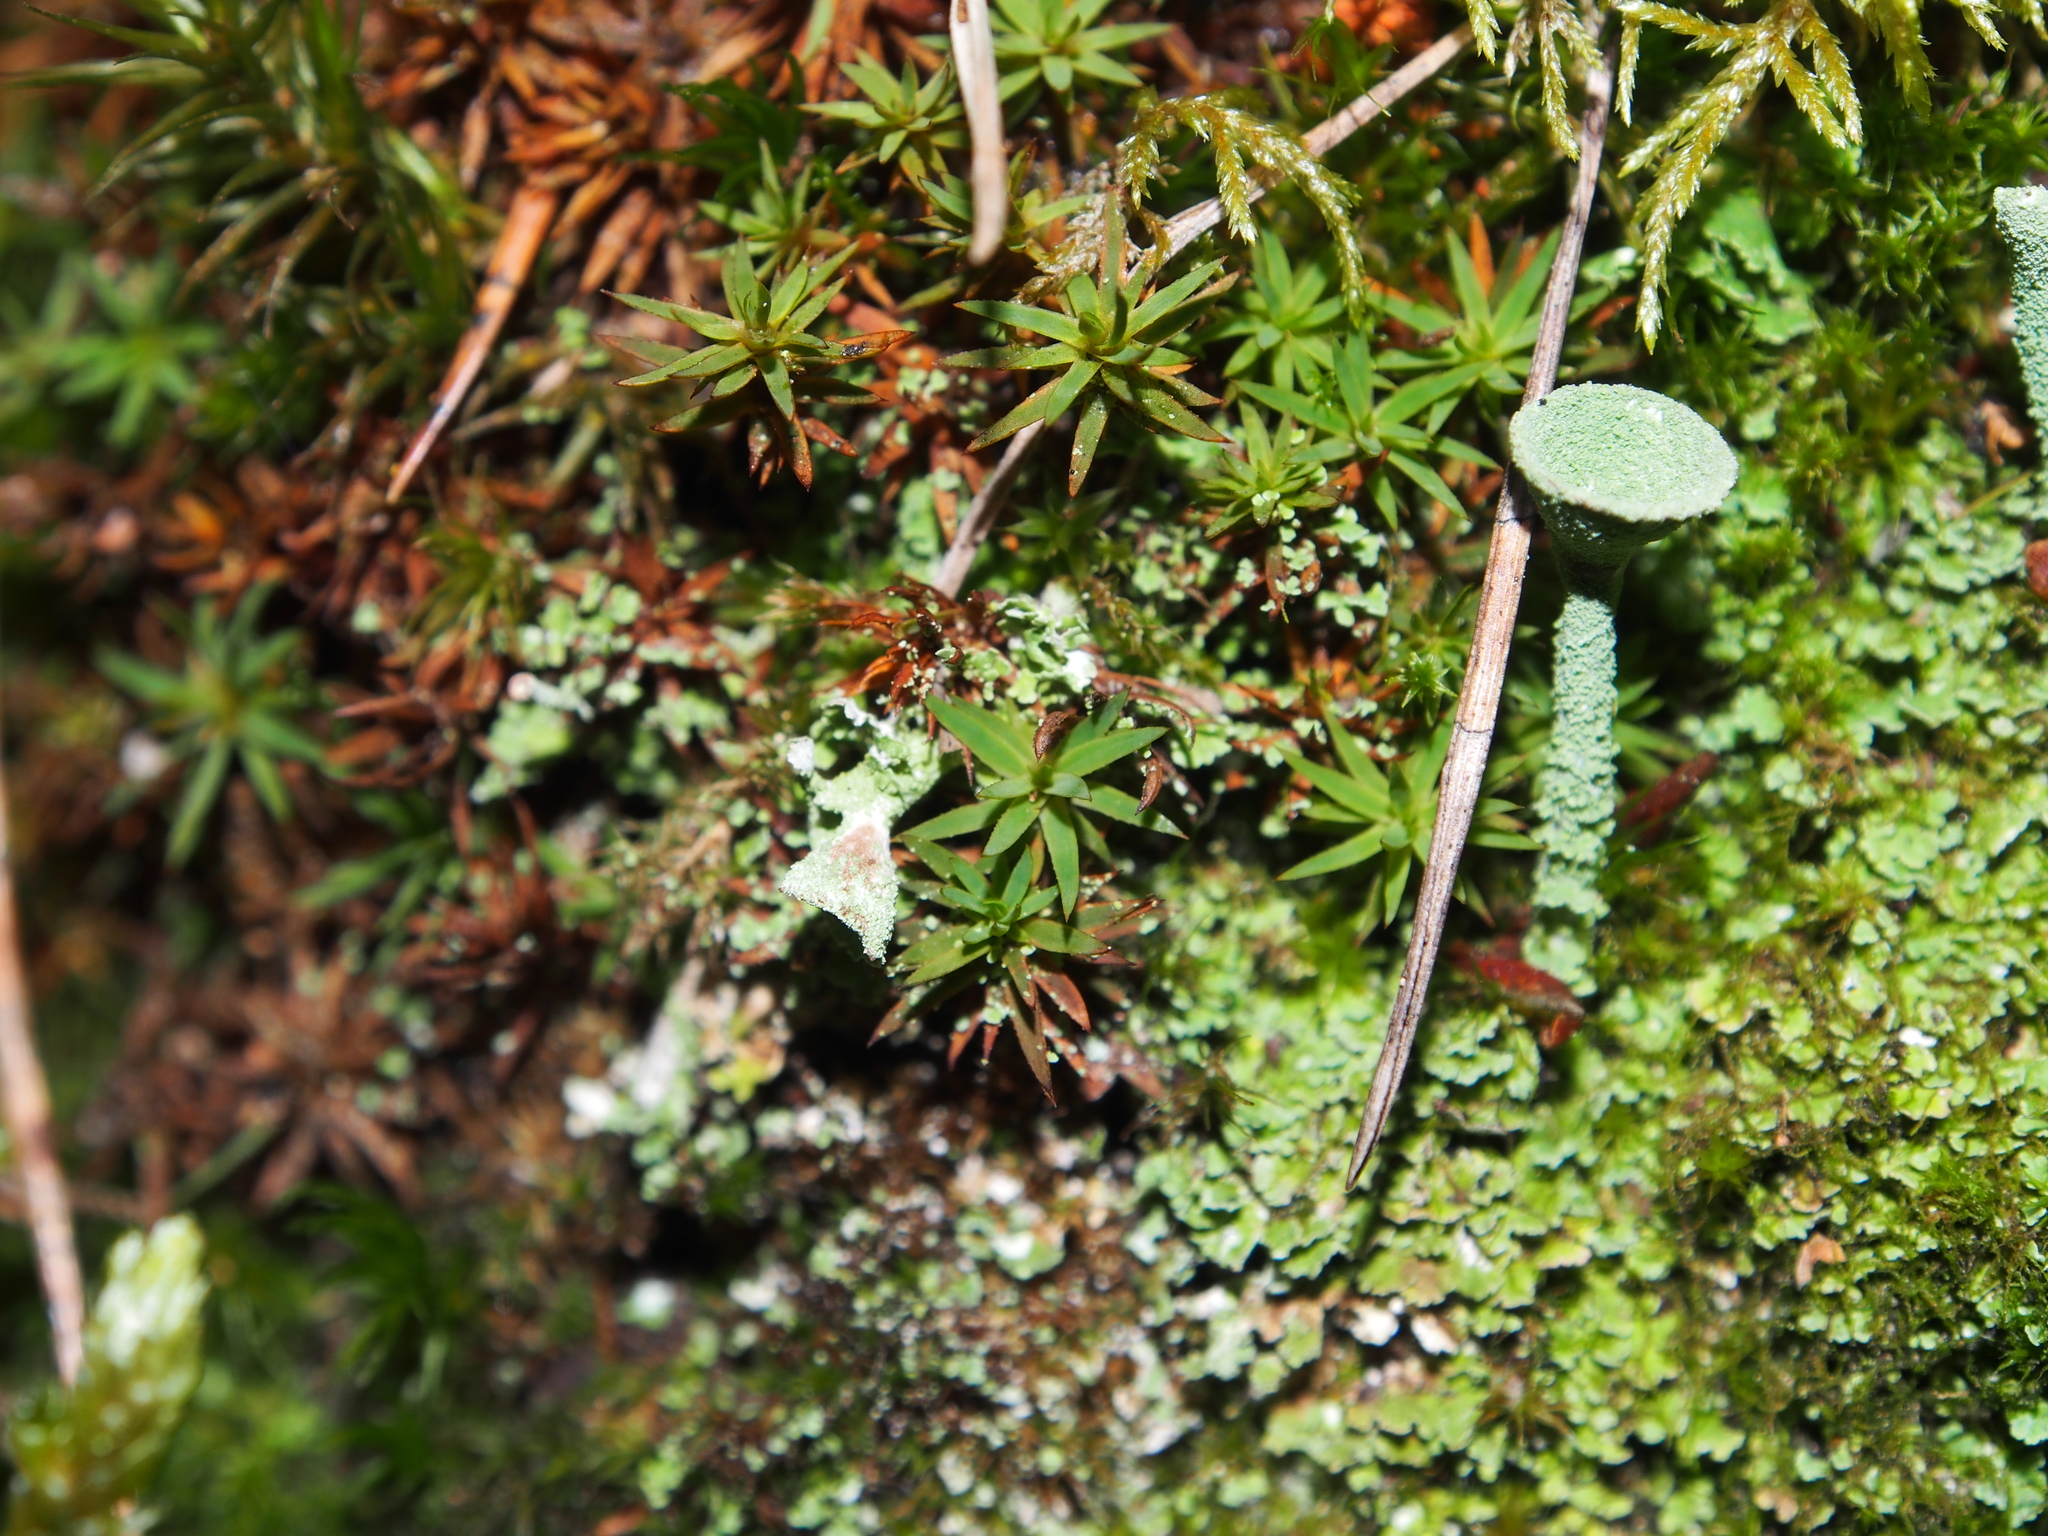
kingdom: Fungi
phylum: Ascomycota
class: Lecanoromycetes
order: Lecanorales
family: Cladoniaceae
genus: Cladonia
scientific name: Cladonia
